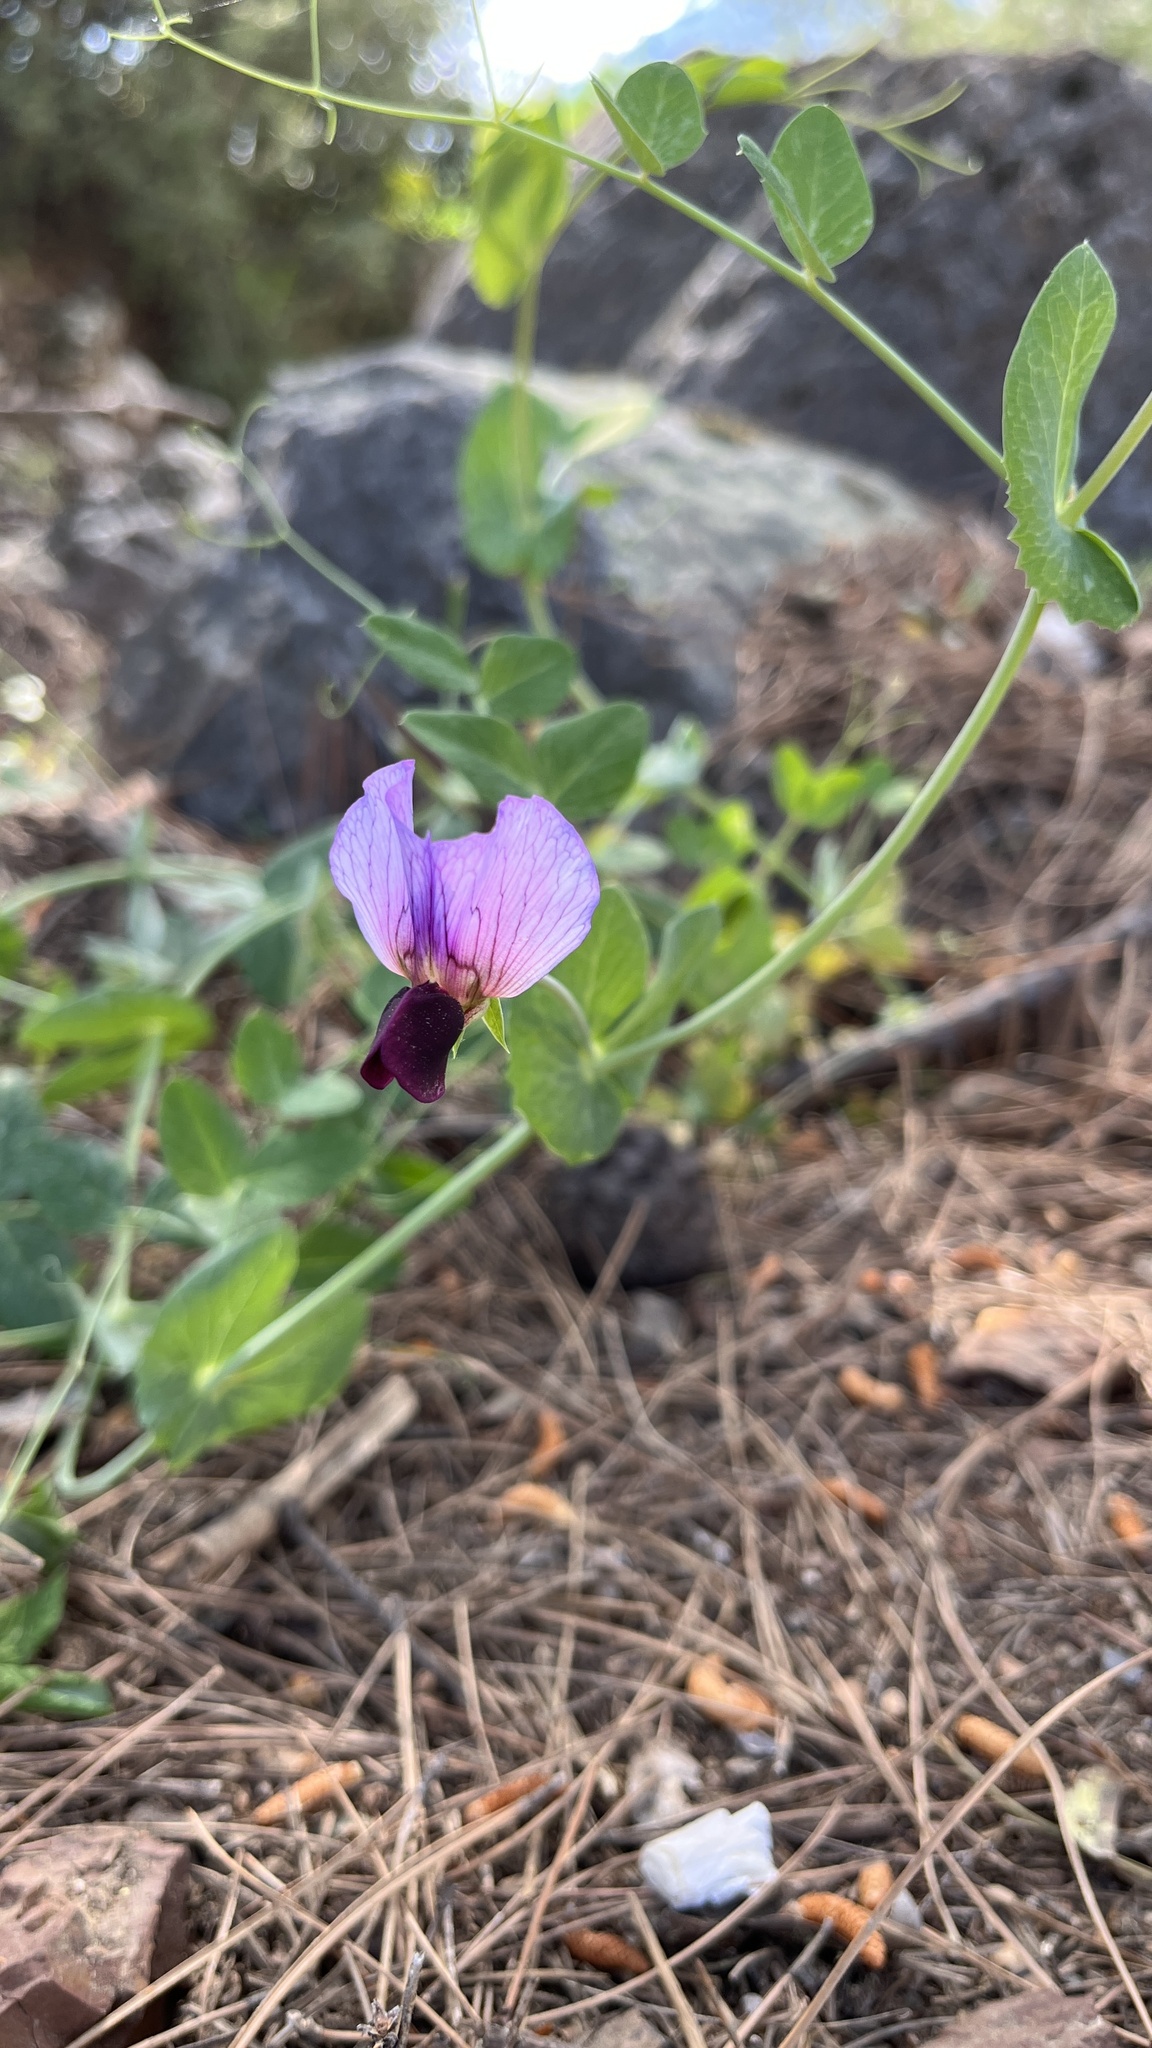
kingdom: Plantae
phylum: Tracheophyta
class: Magnoliopsida
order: Fabales
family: Fabaceae
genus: Lathyrus
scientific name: Lathyrus oleraceus
